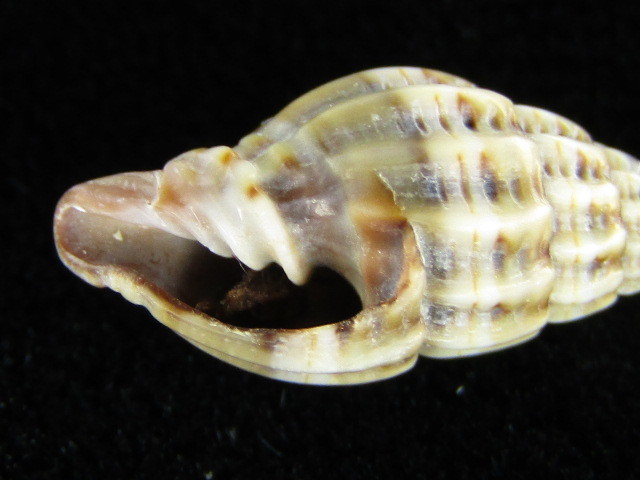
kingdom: Animalia
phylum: Mollusca
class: Gastropoda
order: Neogastropoda
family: Costellariidae
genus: Vexillum
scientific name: Vexillum daedalum
